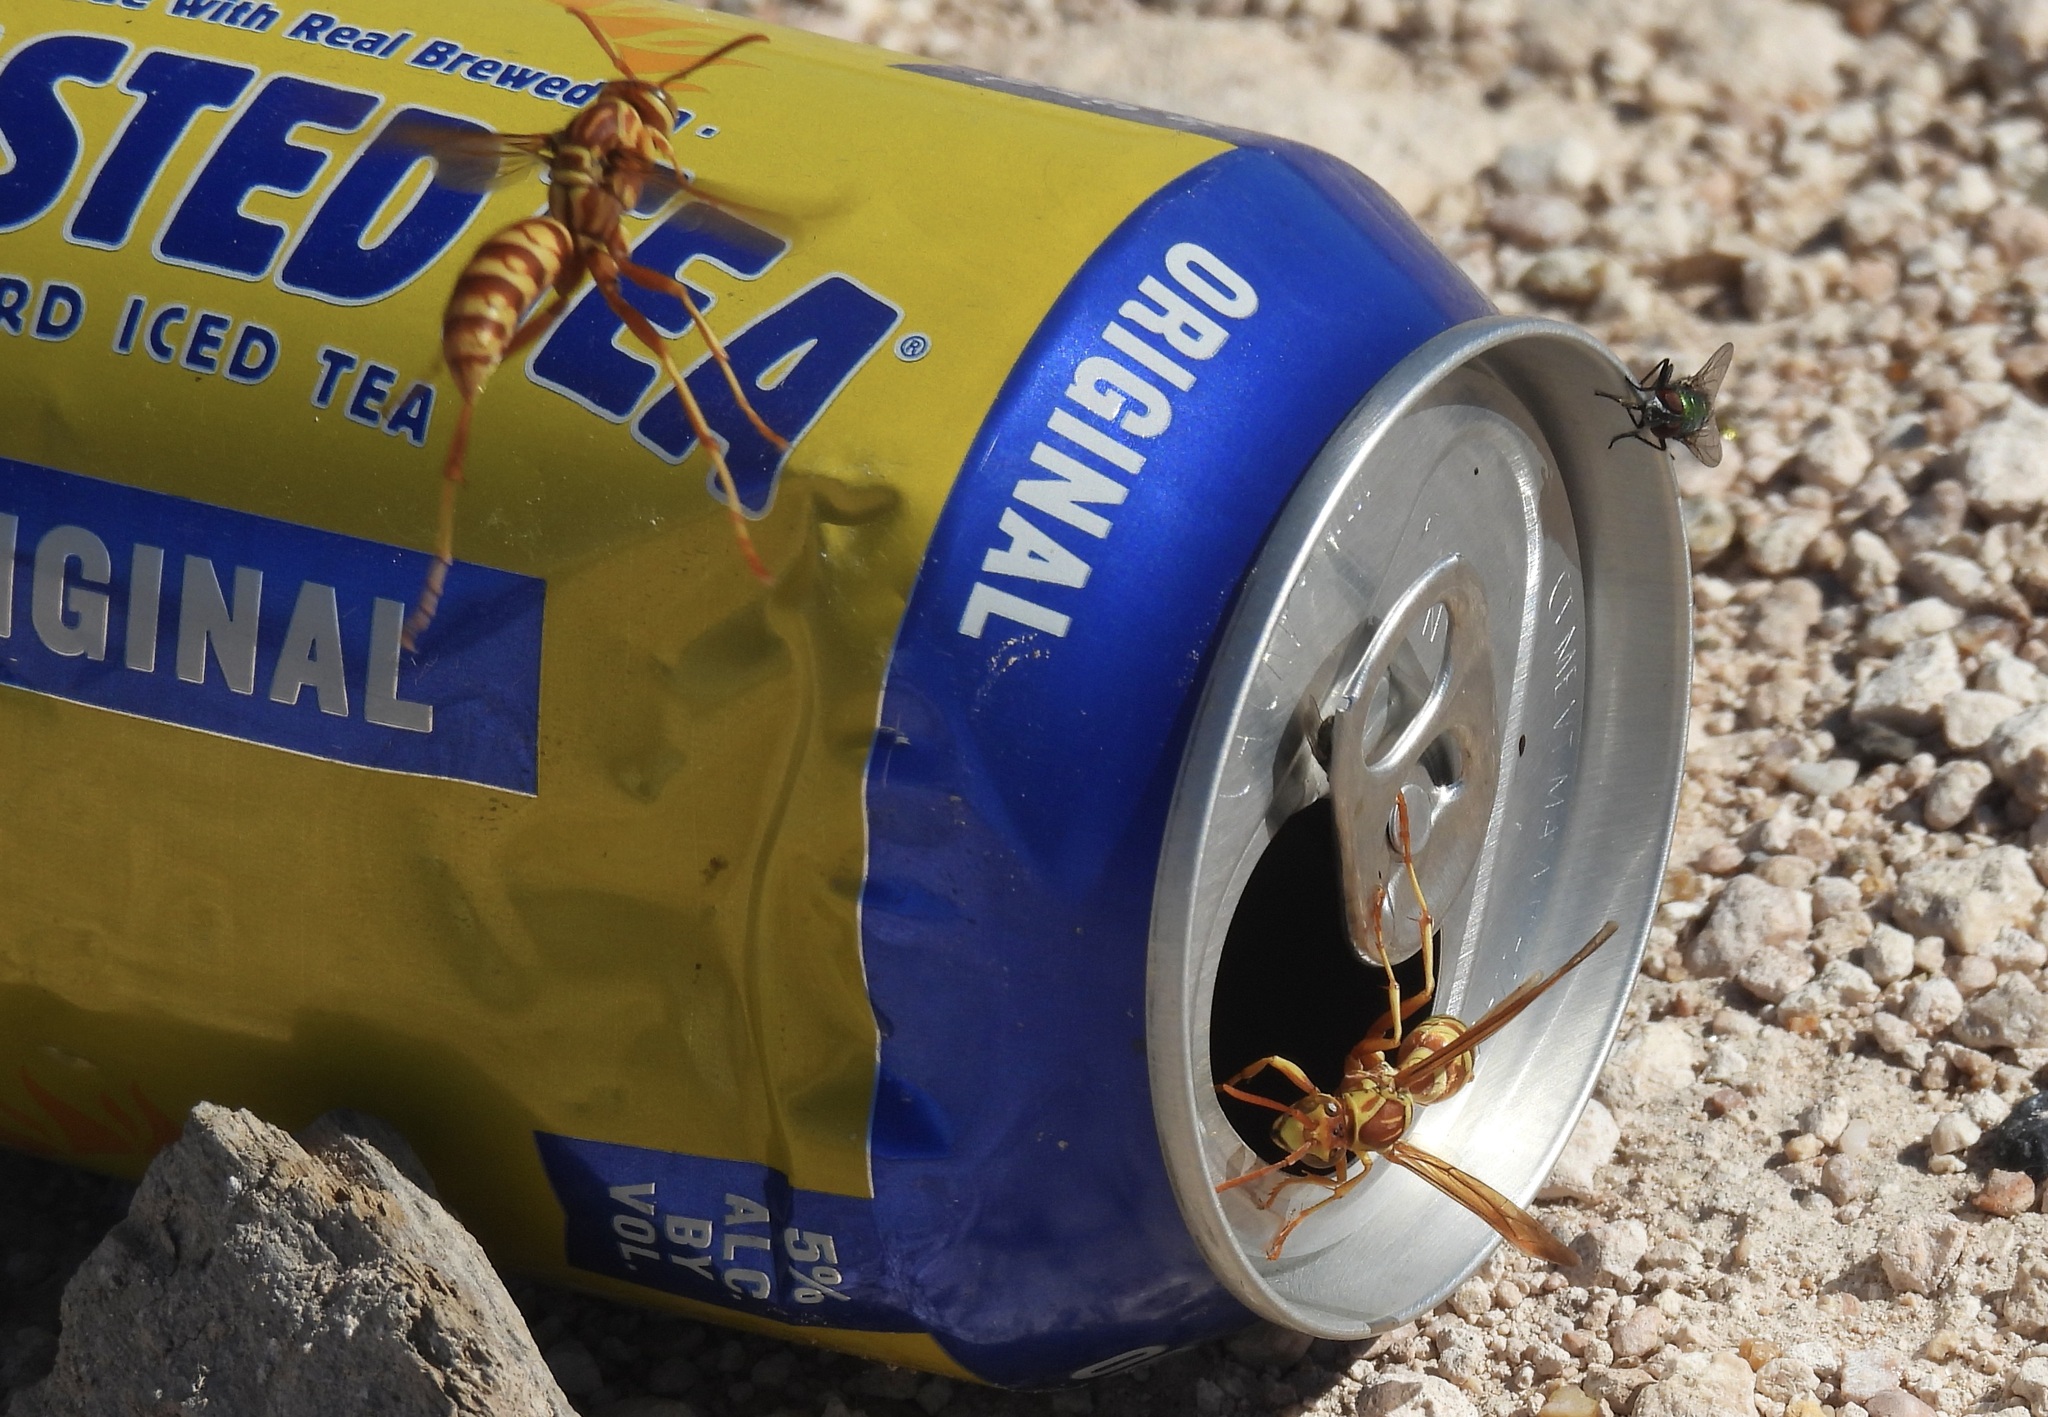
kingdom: Animalia
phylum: Arthropoda
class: Insecta
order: Hymenoptera
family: Eumenidae
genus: Polistes
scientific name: Polistes apachus
